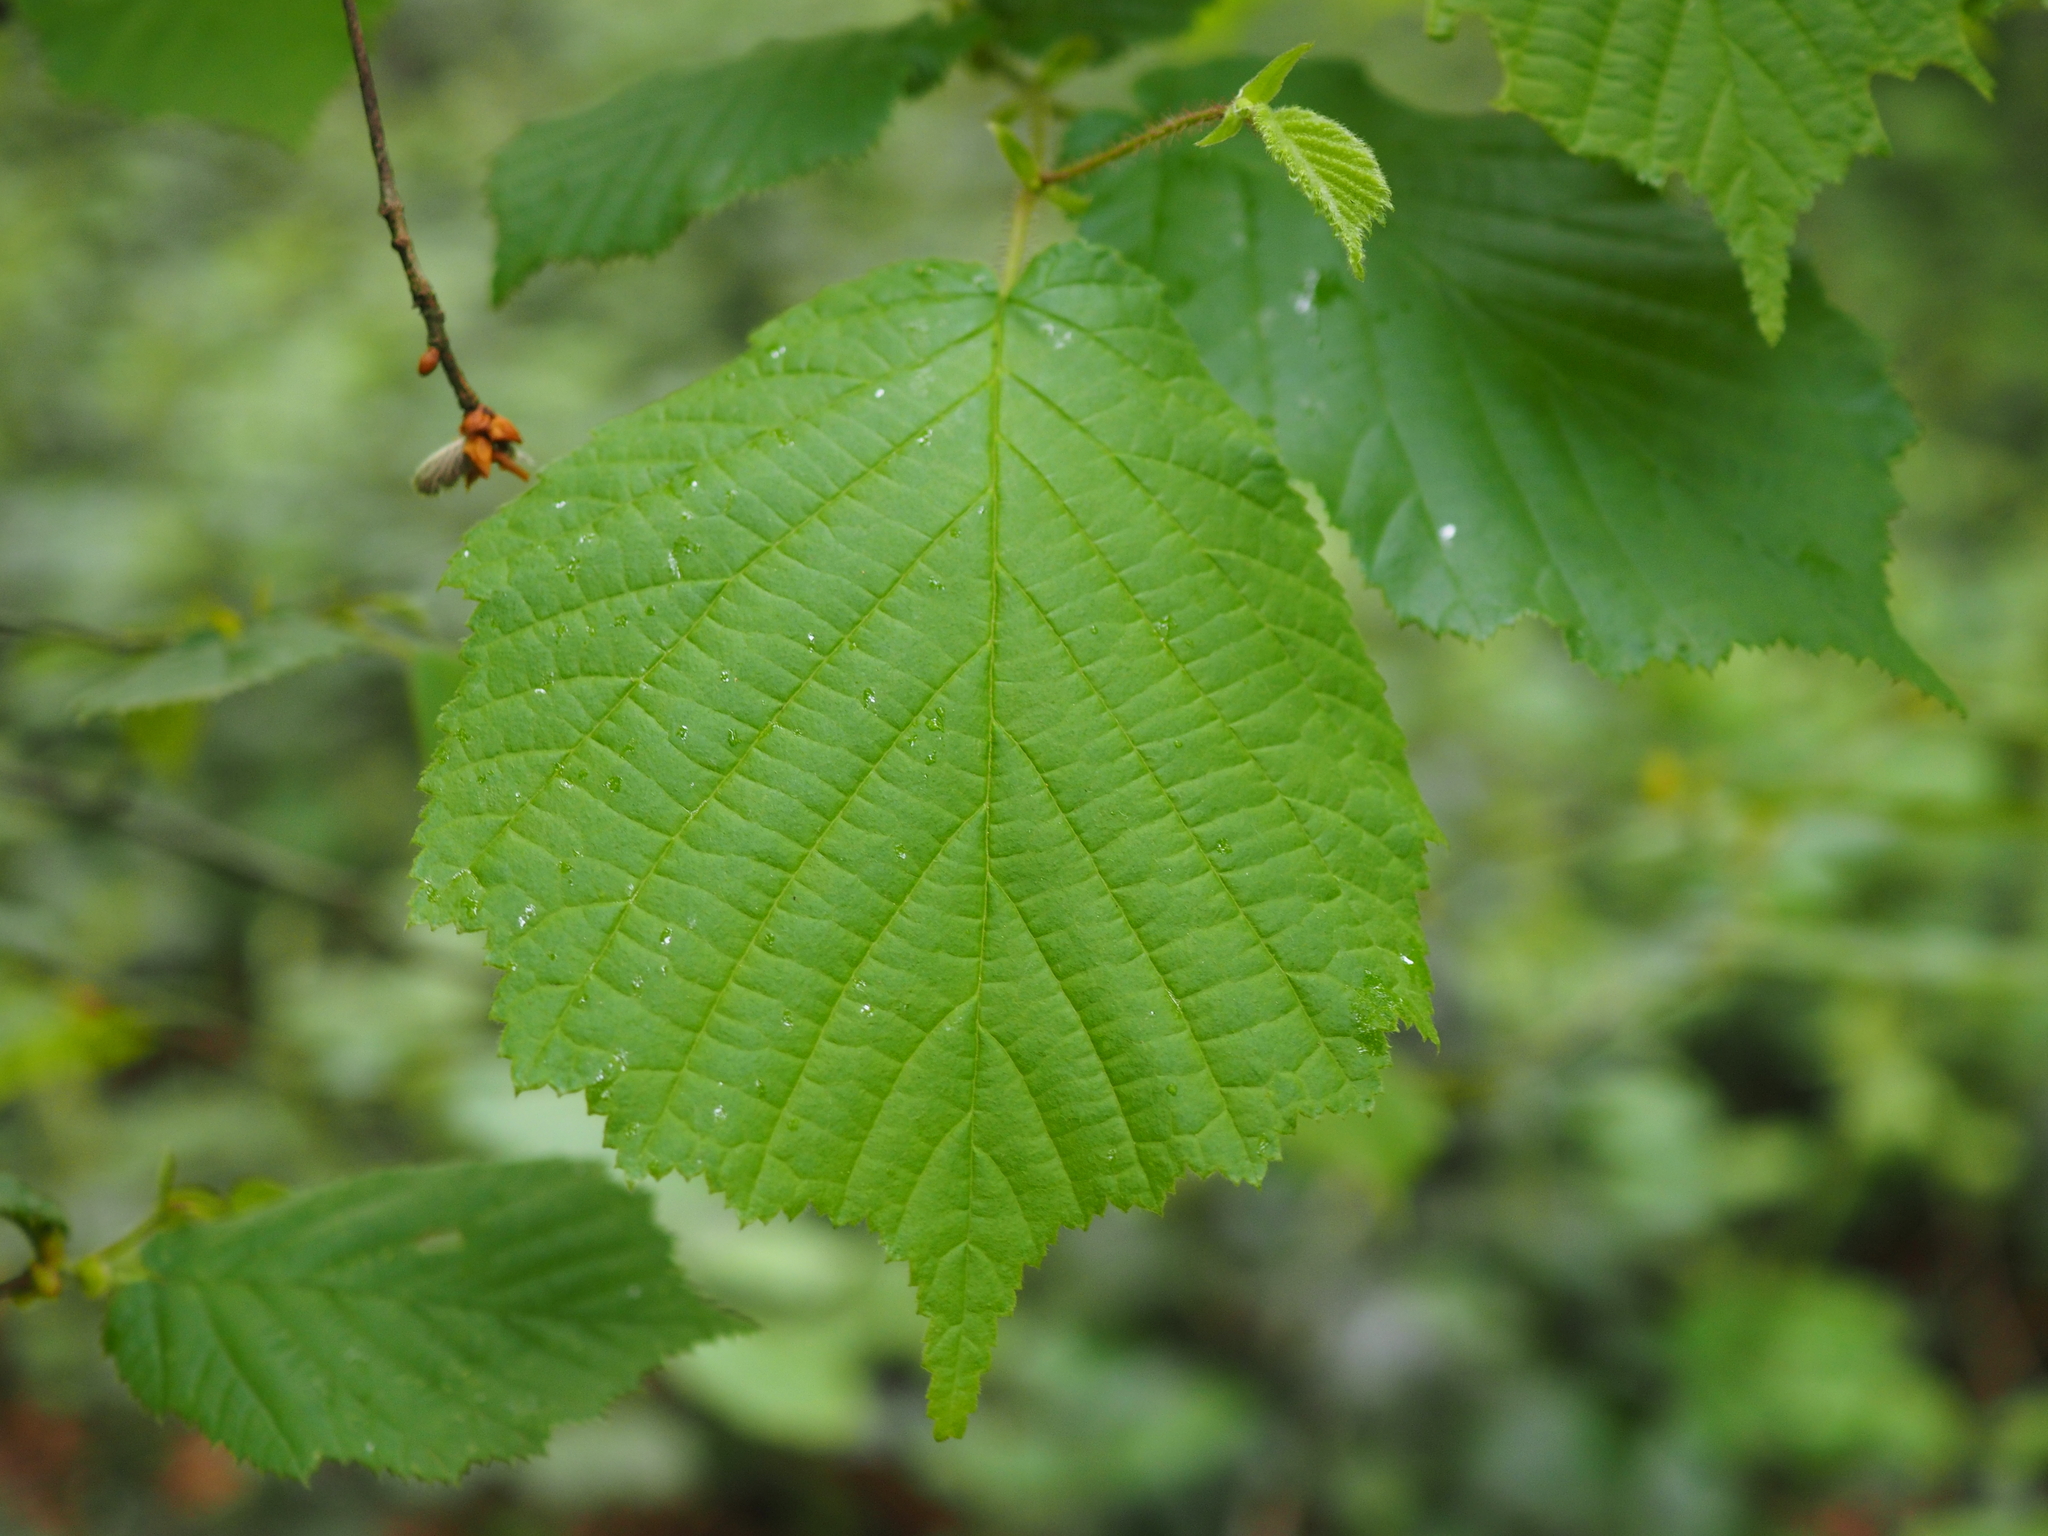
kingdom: Plantae
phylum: Tracheophyta
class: Magnoliopsida
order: Fagales
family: Betulaceae
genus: Corylus
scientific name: Corylus avellana
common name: European hazel
